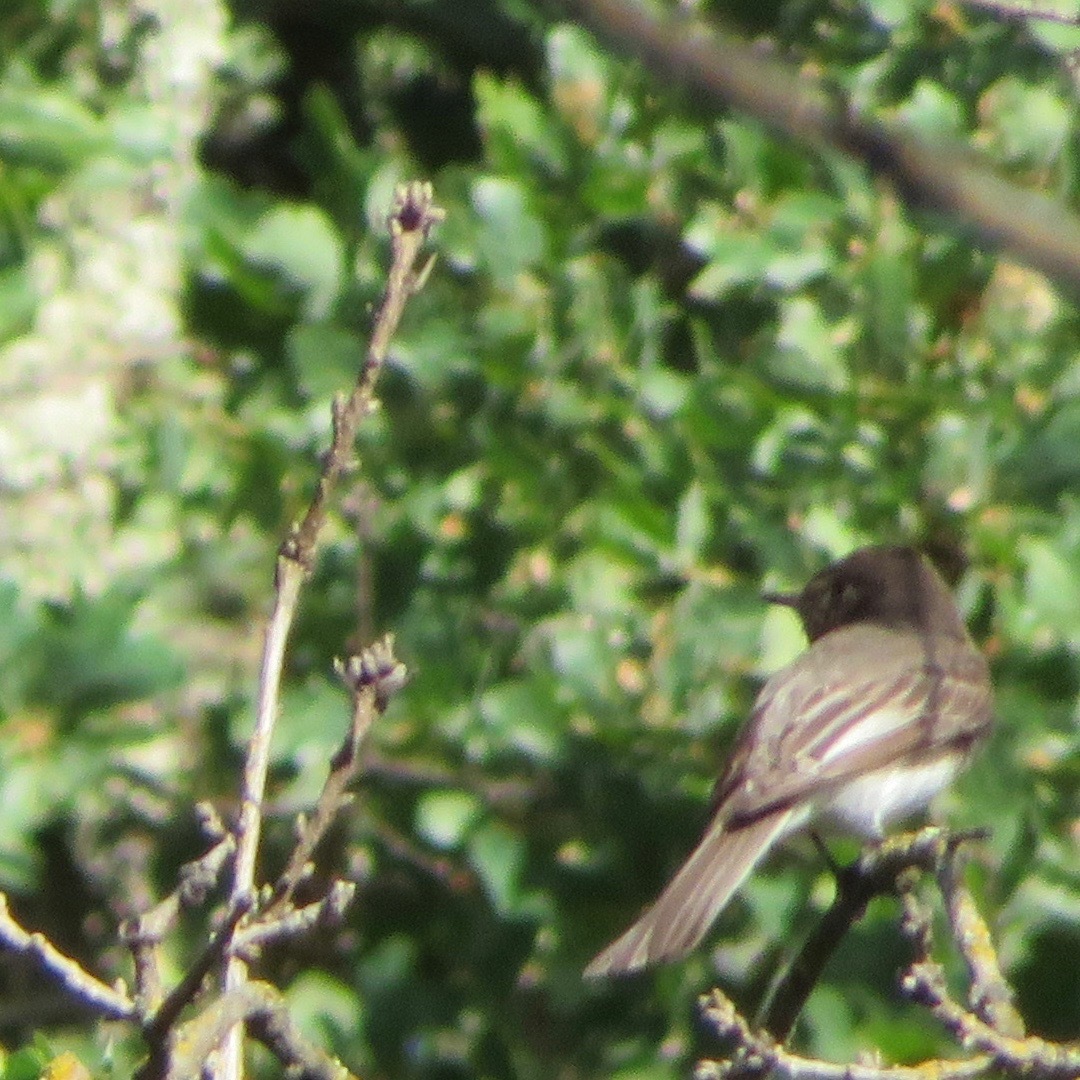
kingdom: Animalia
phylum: Chordata
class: Aves
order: Passeriformes
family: Tyrannidae
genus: Sayornis
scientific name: Sayornis nigricans
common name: Black phoebe
